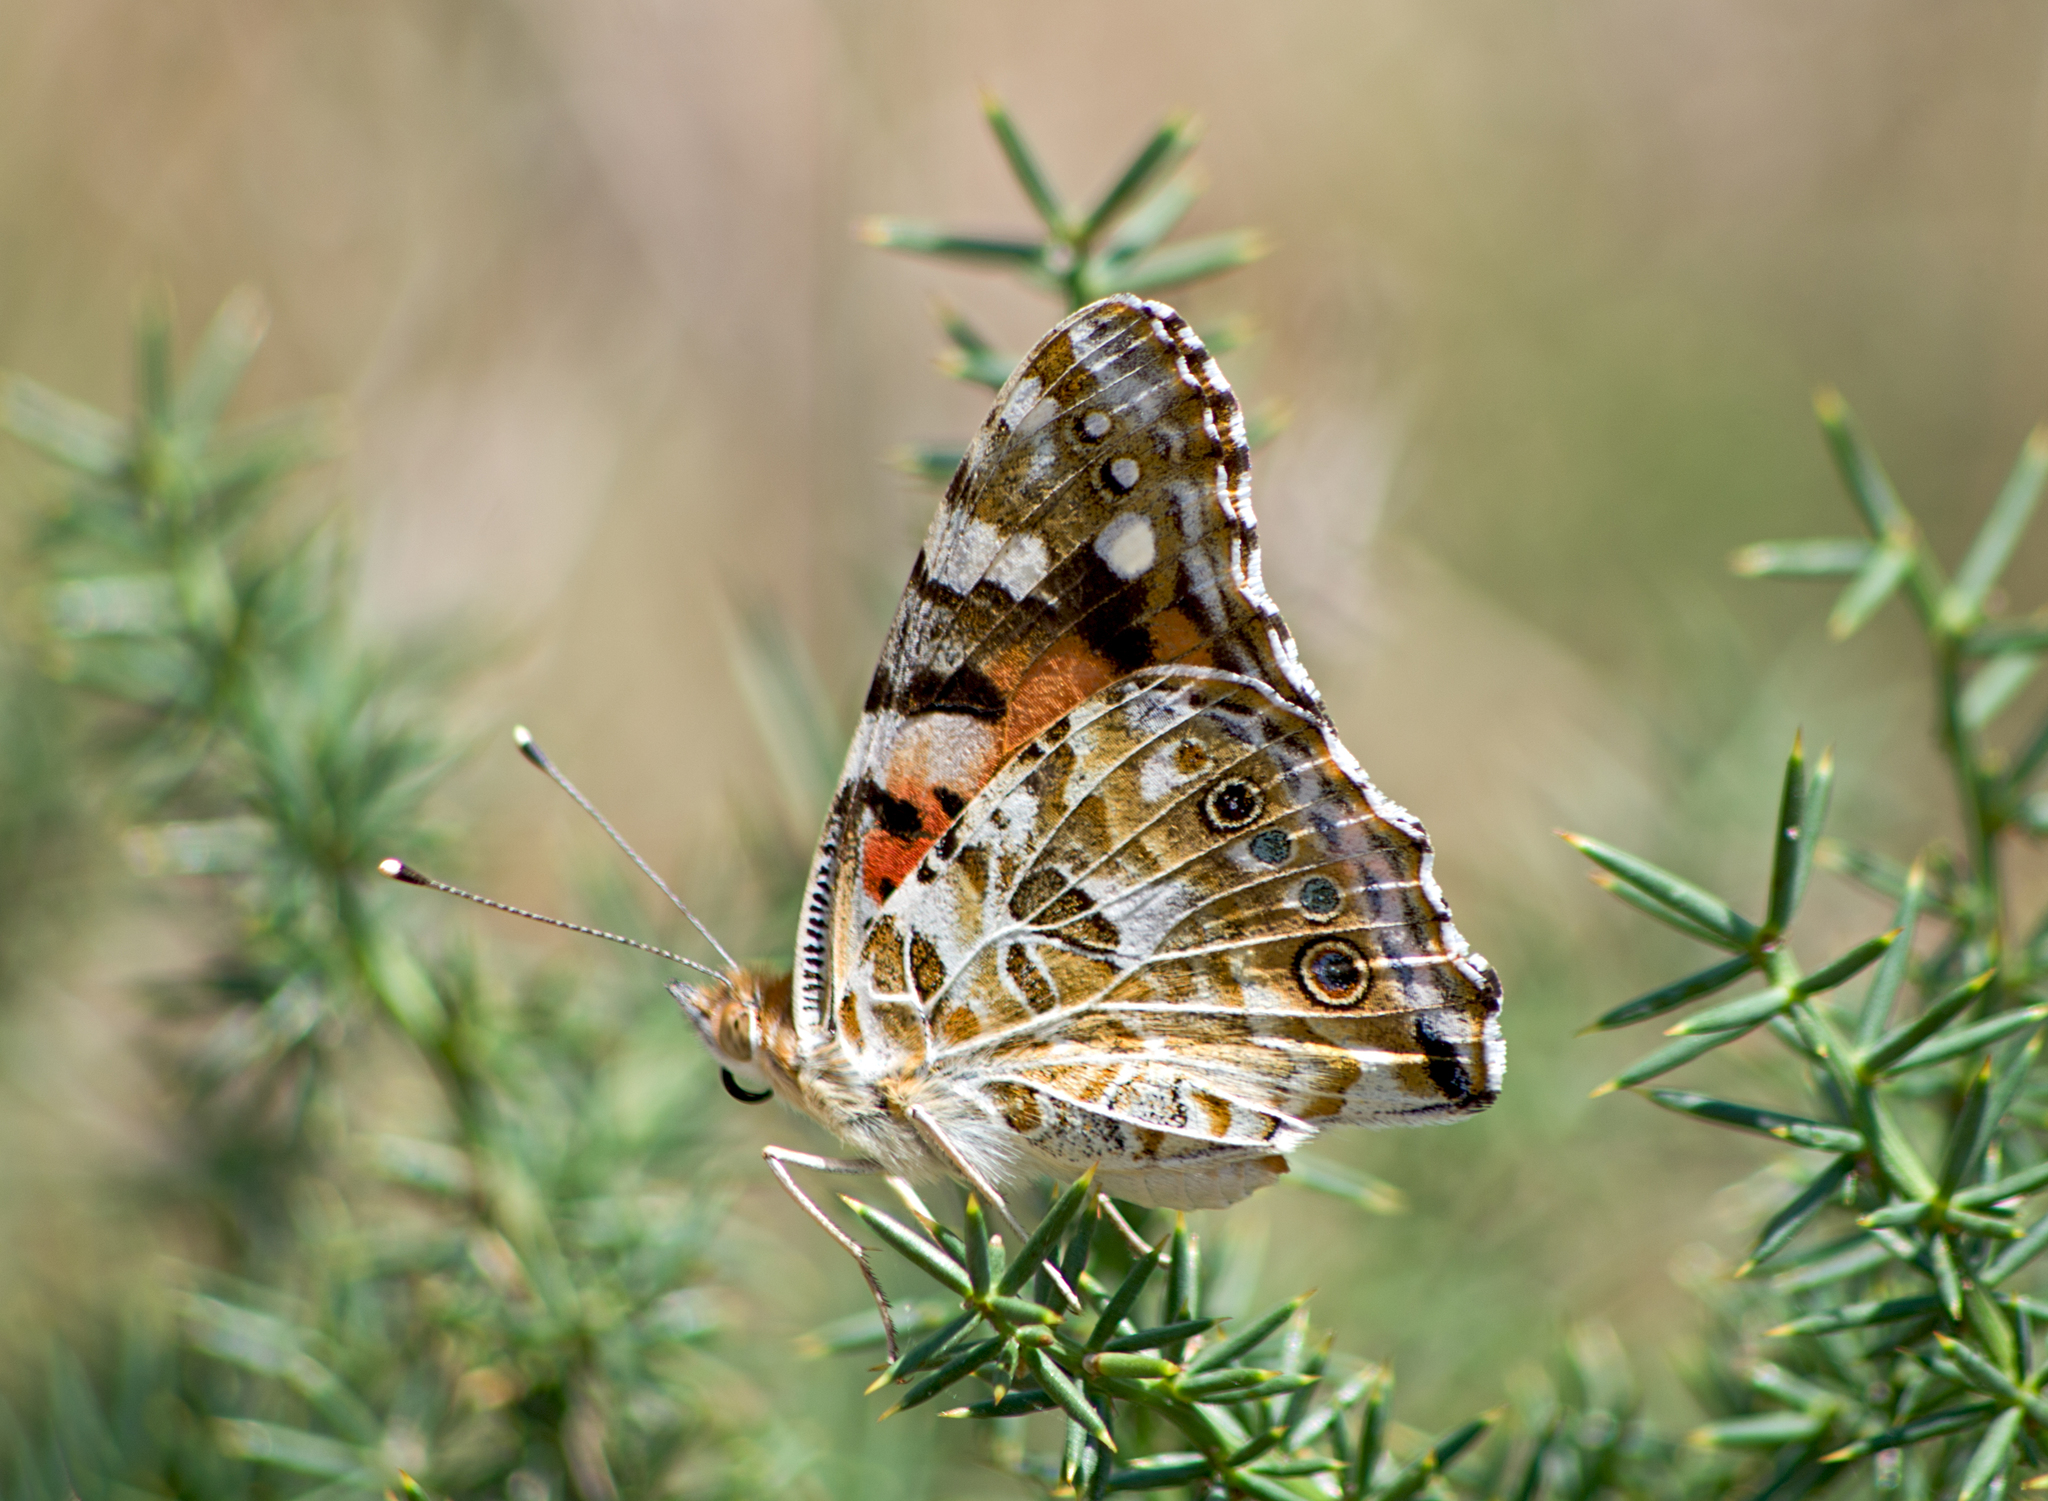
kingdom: Animalia
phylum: Arthropoda
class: Insecta
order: Lepidoptera
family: Nymphalidae
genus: Vanessa
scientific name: Vanessa cardui
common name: Painted lady
